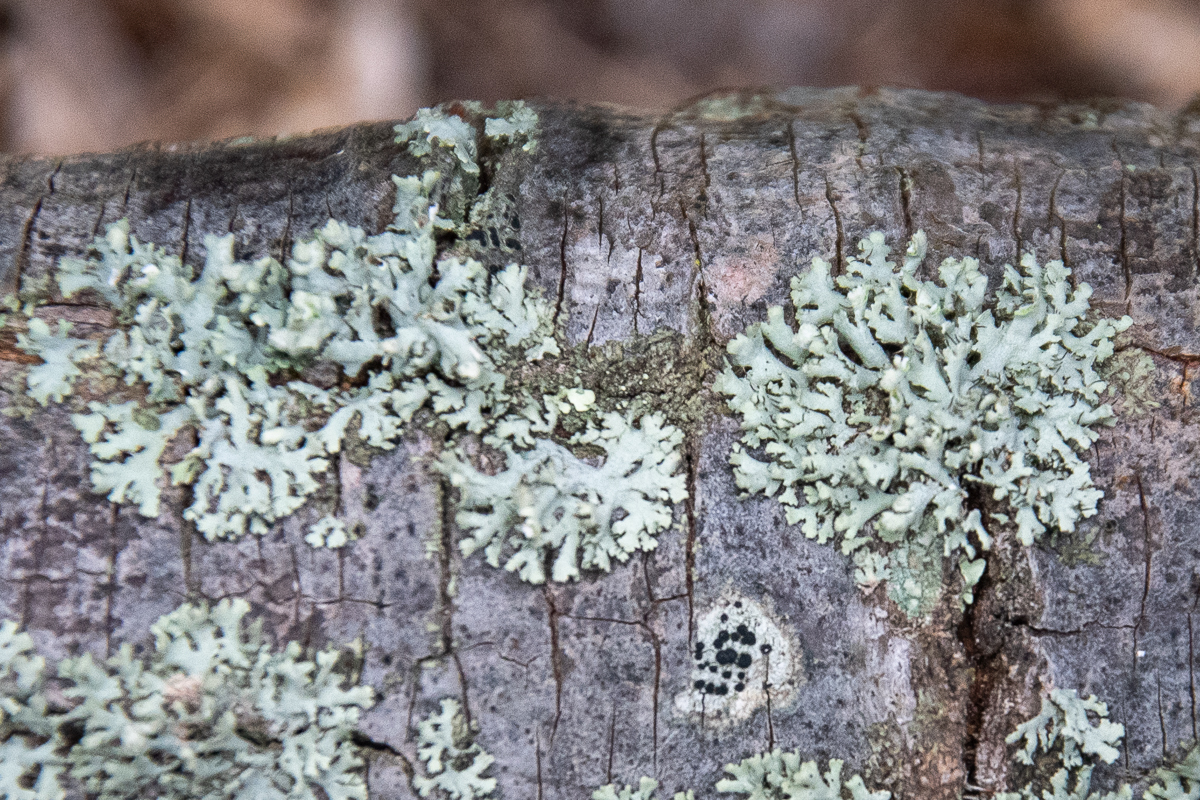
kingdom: Fungi
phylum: Ascomycota
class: Lecanoromycetes
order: Caliciales
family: Physciaceae
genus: Physcia
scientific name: Physcia adscendens
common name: Hooded rosette lichen
